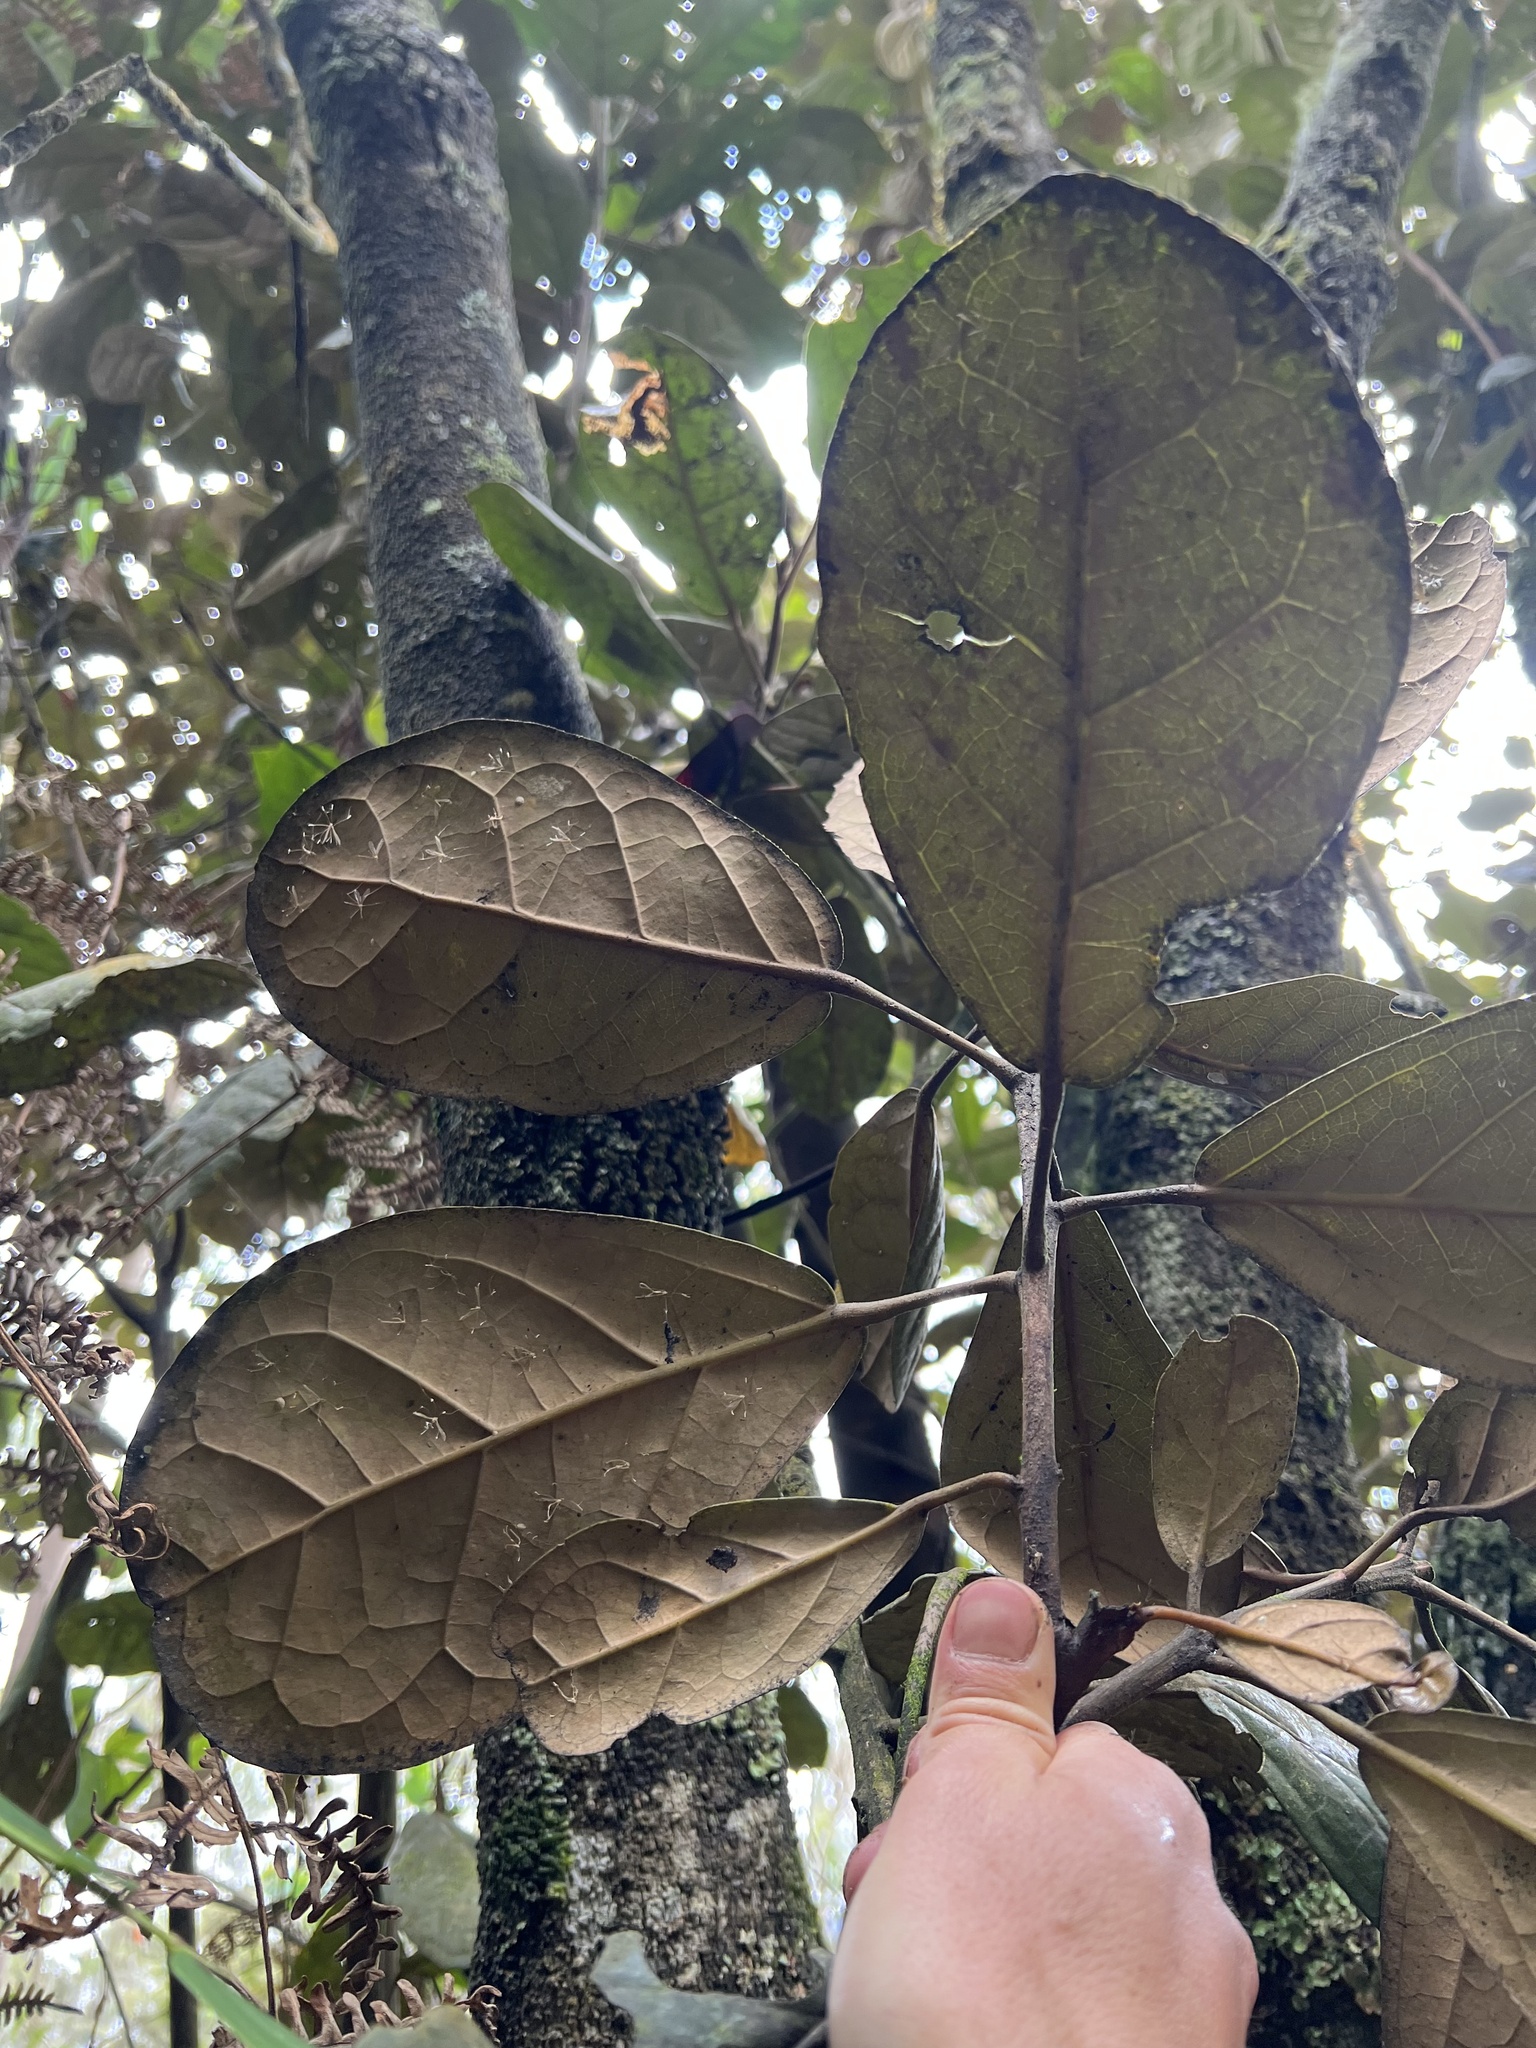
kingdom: Plantae
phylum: Tracheophyta
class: Magnoliopsida
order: Malpighiales
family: Phyllanthaceae
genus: Hieronyma
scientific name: Hieronyma rufa
